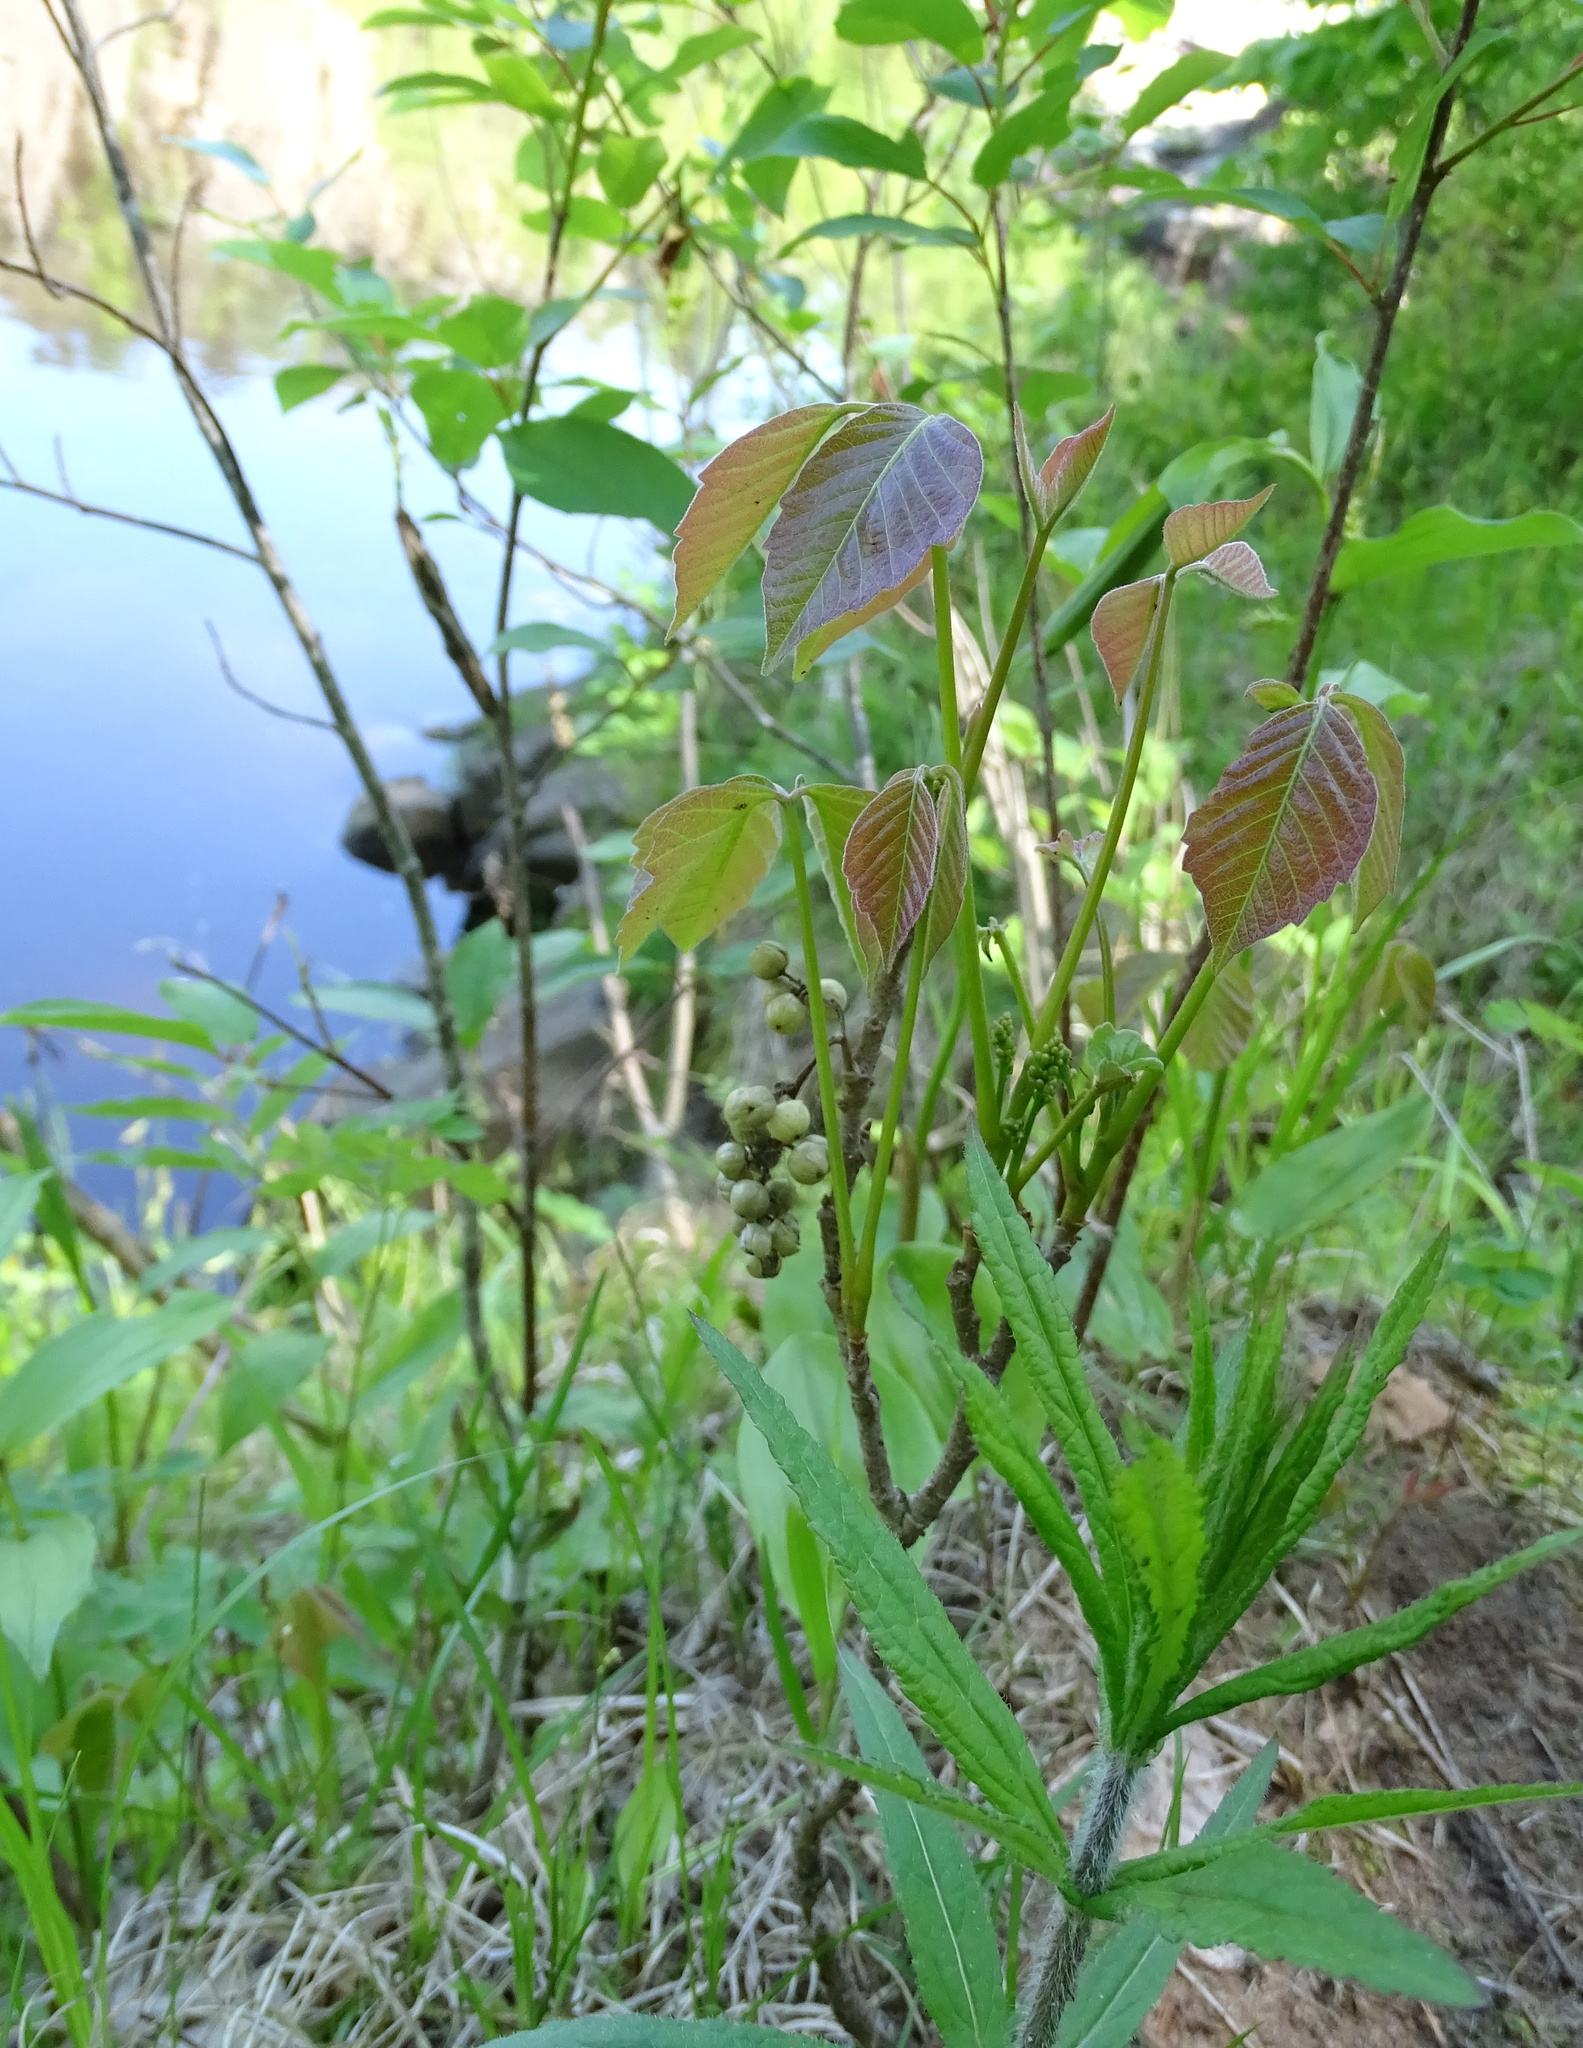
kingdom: Plantae
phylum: Tracheophyta
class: Magnoliopsida
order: Sapindales
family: Anacardiaceae
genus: Toxicodendron
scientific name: Toxicodendron rydbergii
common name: Rydberg's poison-ivy
